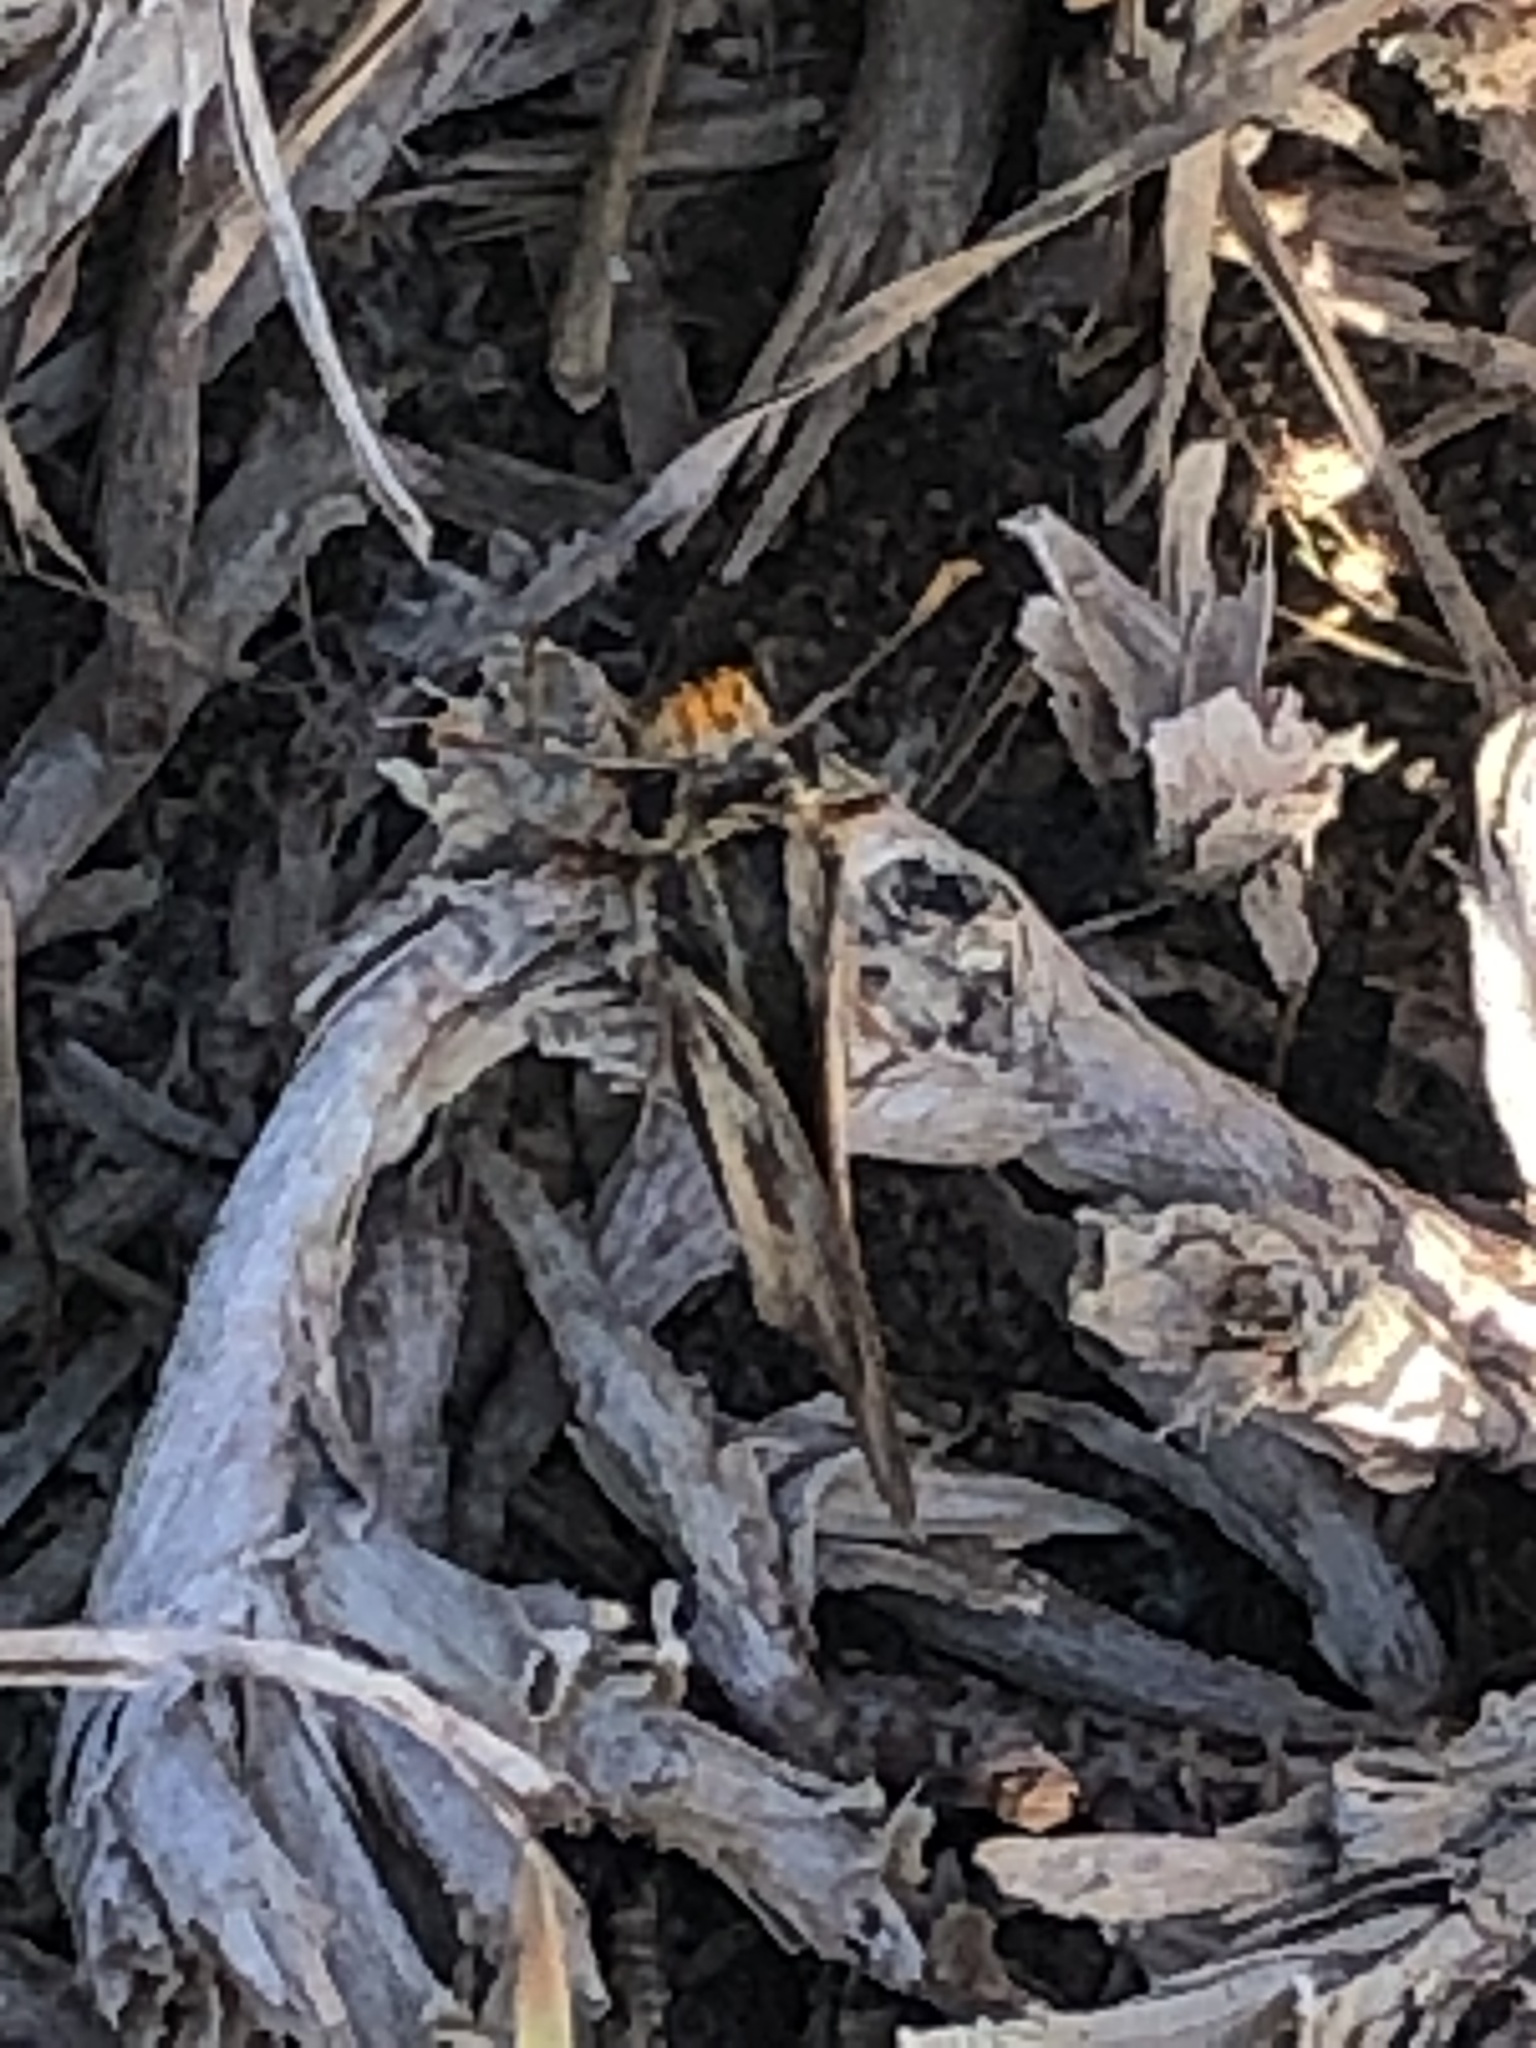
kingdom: Animalia
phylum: Arthropoda
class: Insecta
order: Lepidoptera
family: Hesperiidae
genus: Hylephila
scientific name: Hylephila fasciolata
